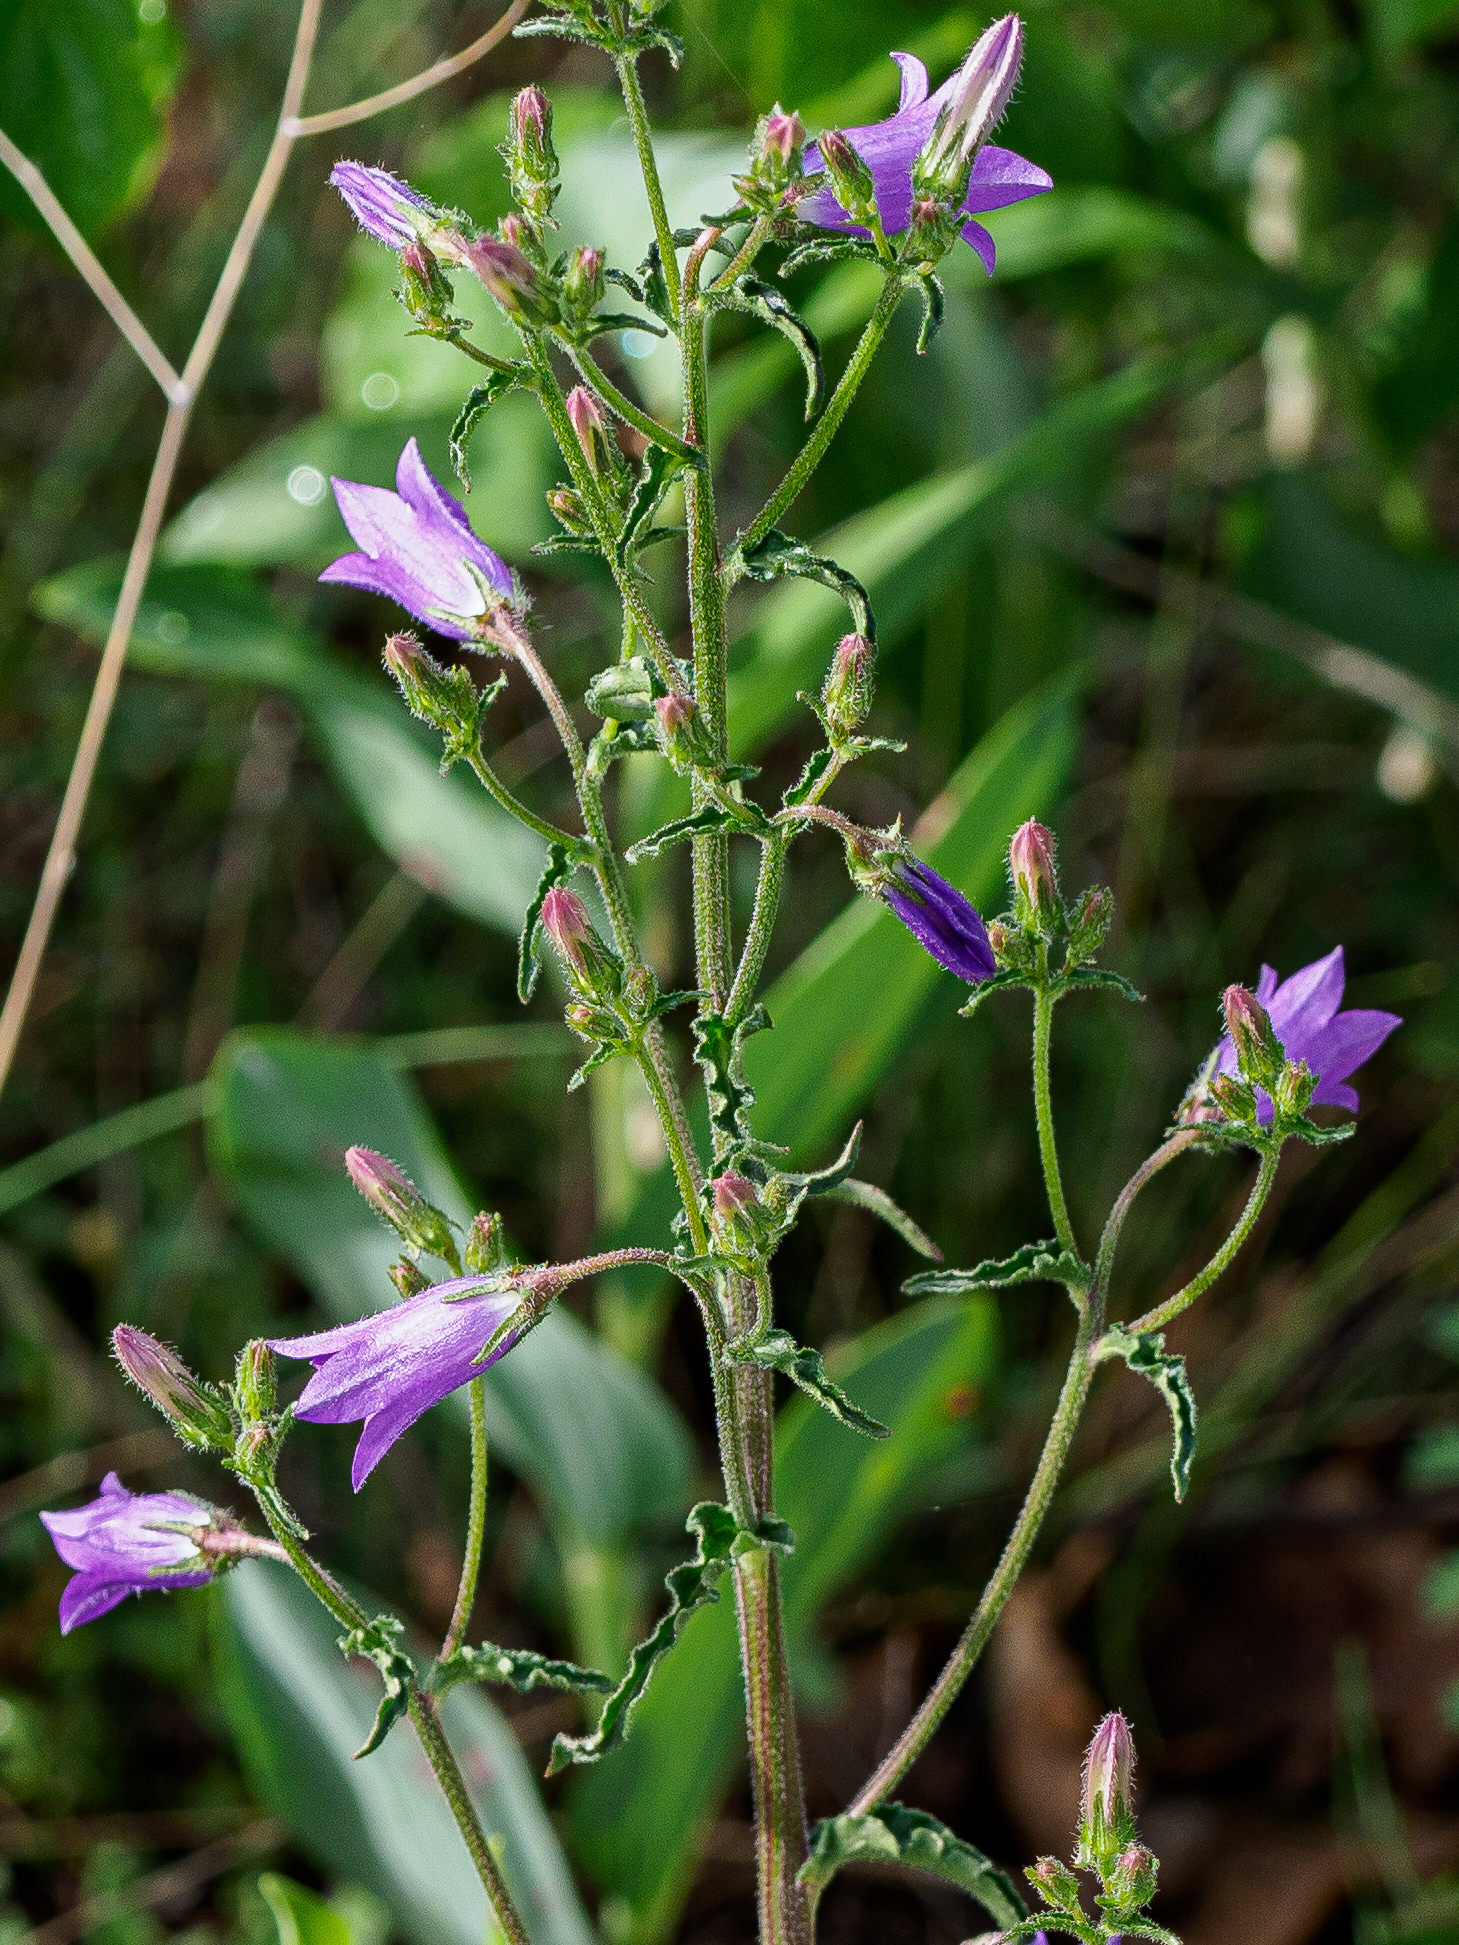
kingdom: Plantae
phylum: Tracheophyta
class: Magnoliopsida
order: Asterales
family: Campanulaceae
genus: Campanula
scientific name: Campanula sibirica
